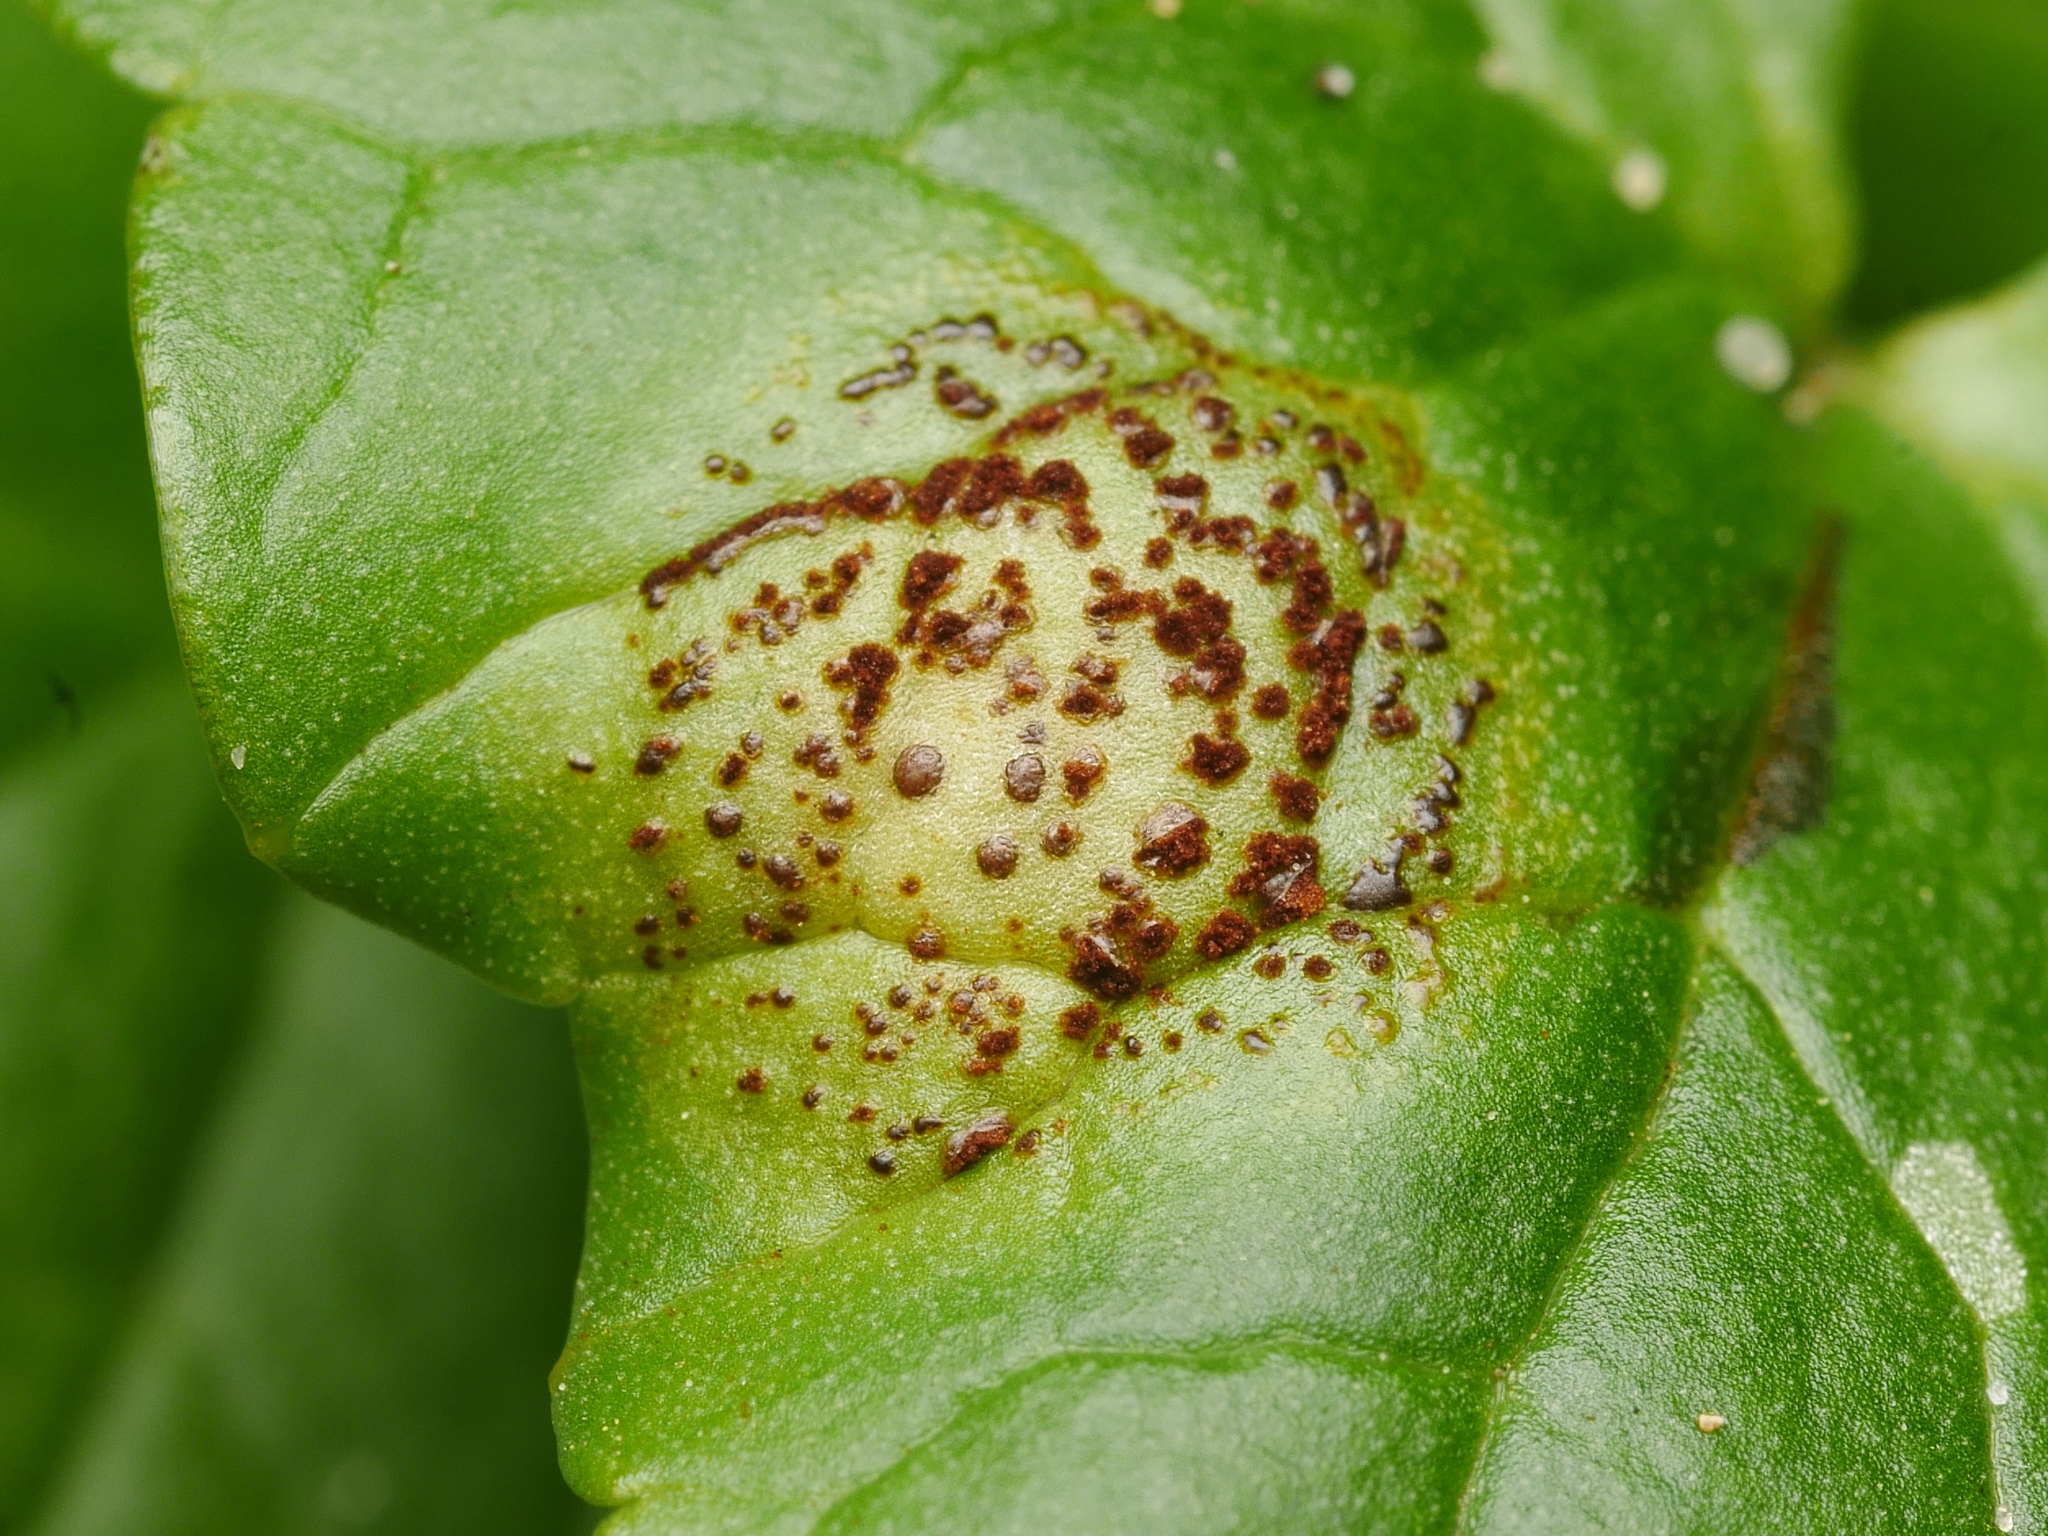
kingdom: Fungi
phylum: Basidiomycota
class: Pucciniomycetes
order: Pucciniales
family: Pucciniaceae
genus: Uromyces
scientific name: Uromyces ficariae
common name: Bitter chocolate rust
